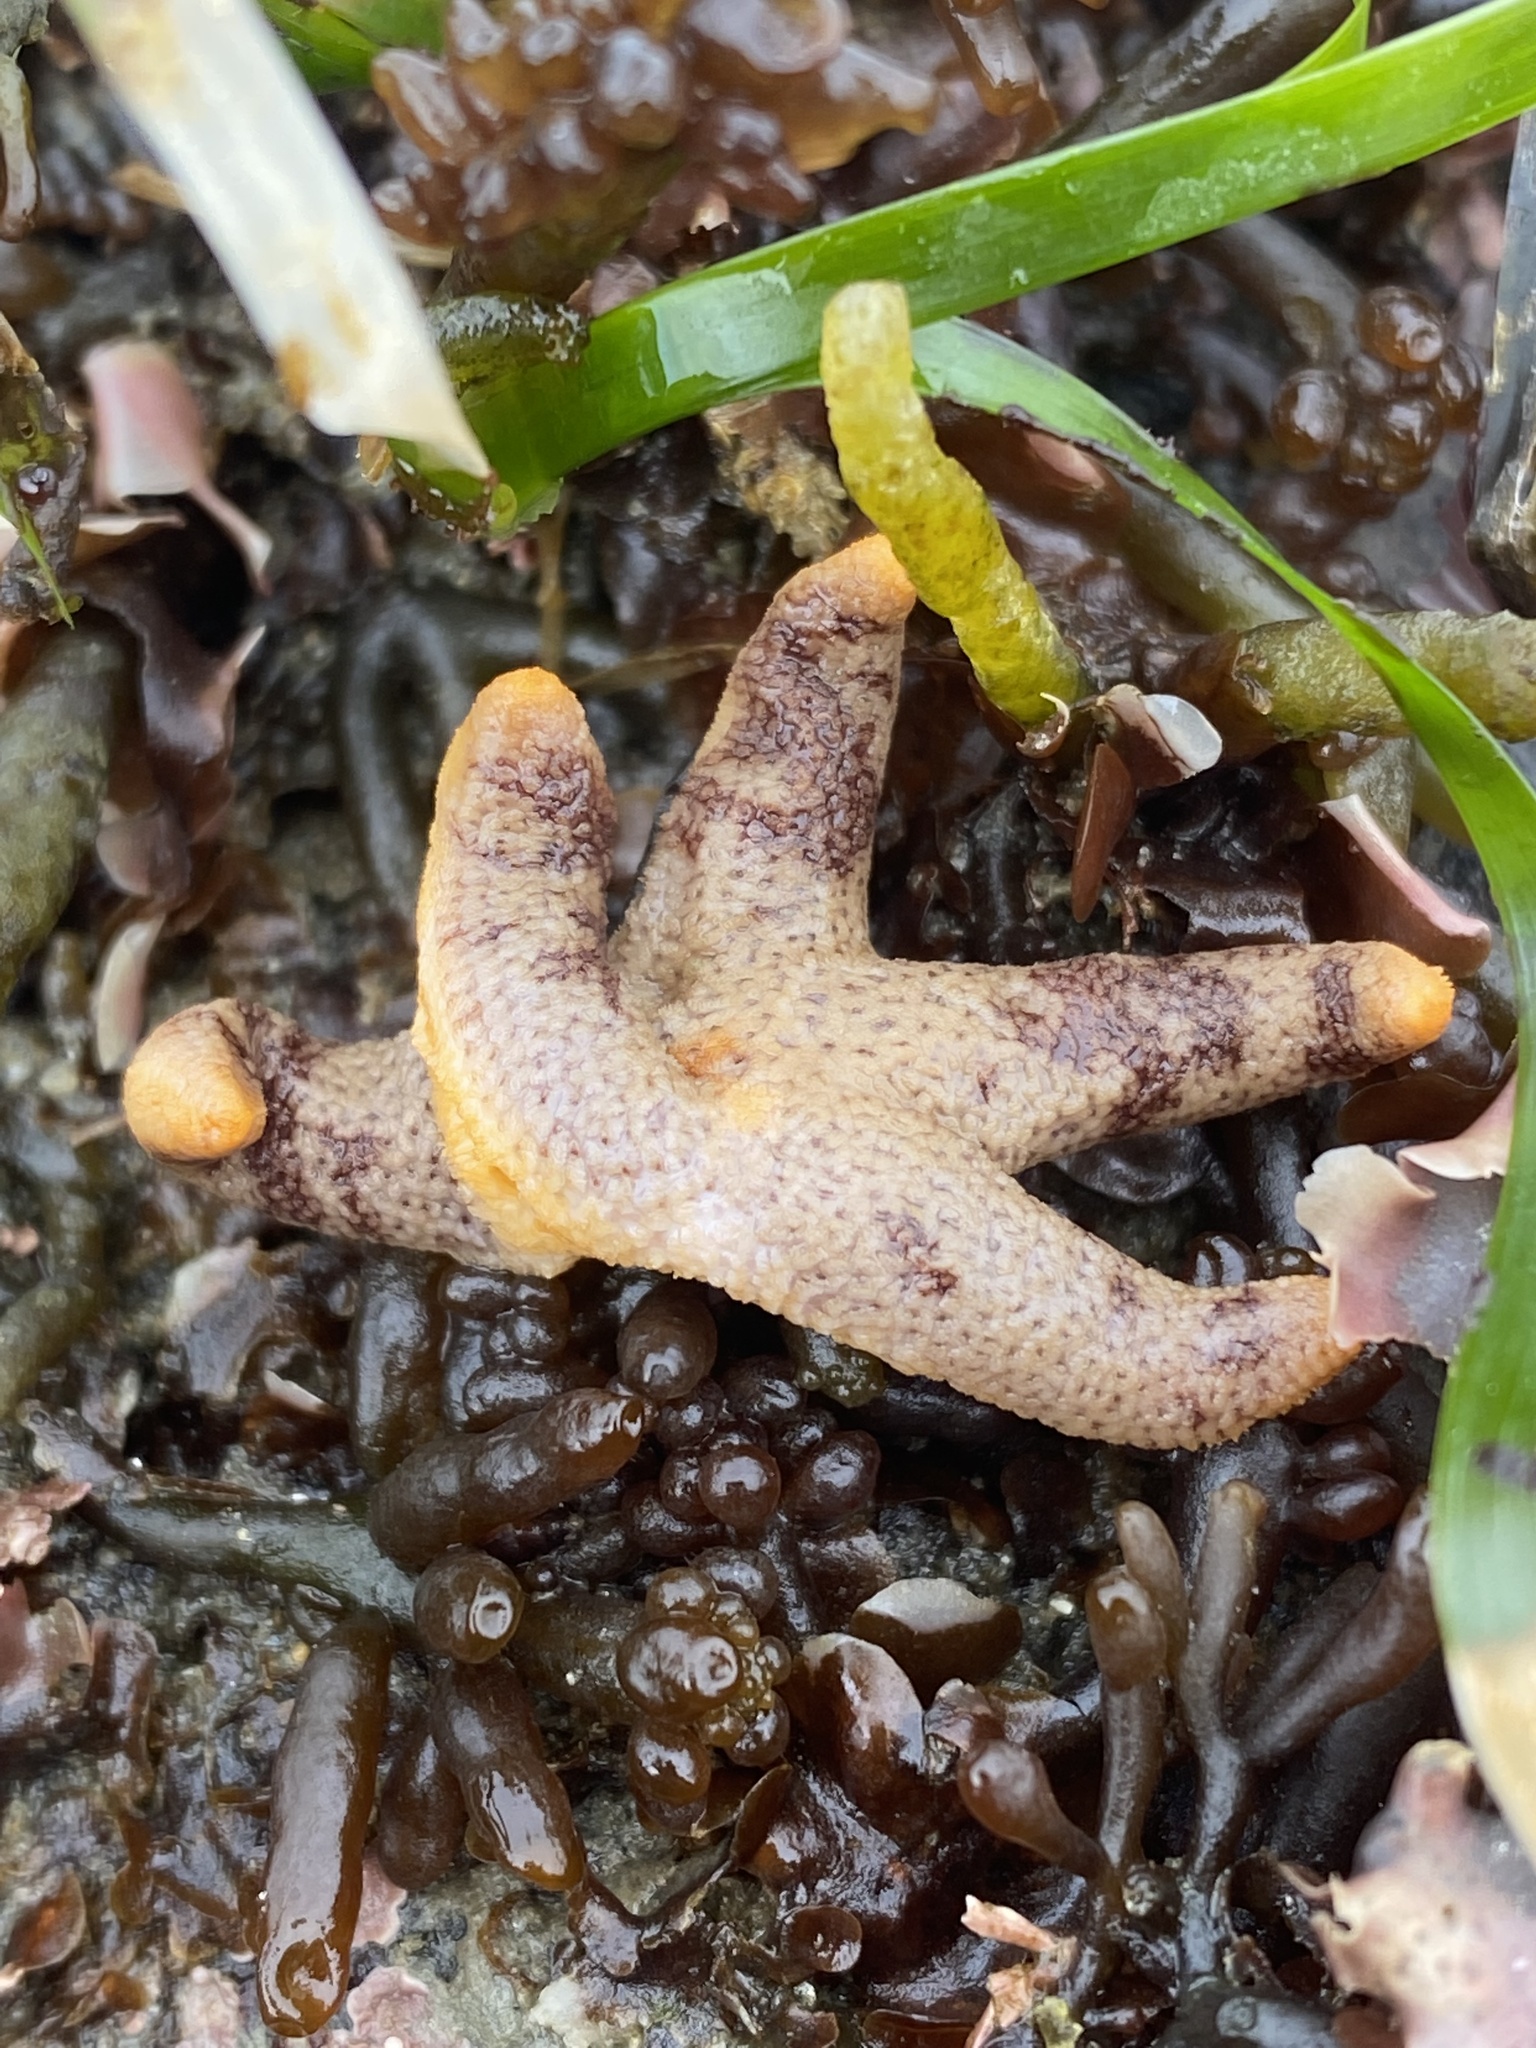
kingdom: Animalia
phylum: Echinodermata
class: Asteroidea
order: Spinulosida
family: Echinasteridae
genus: Henricia
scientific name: Henricia pumila
